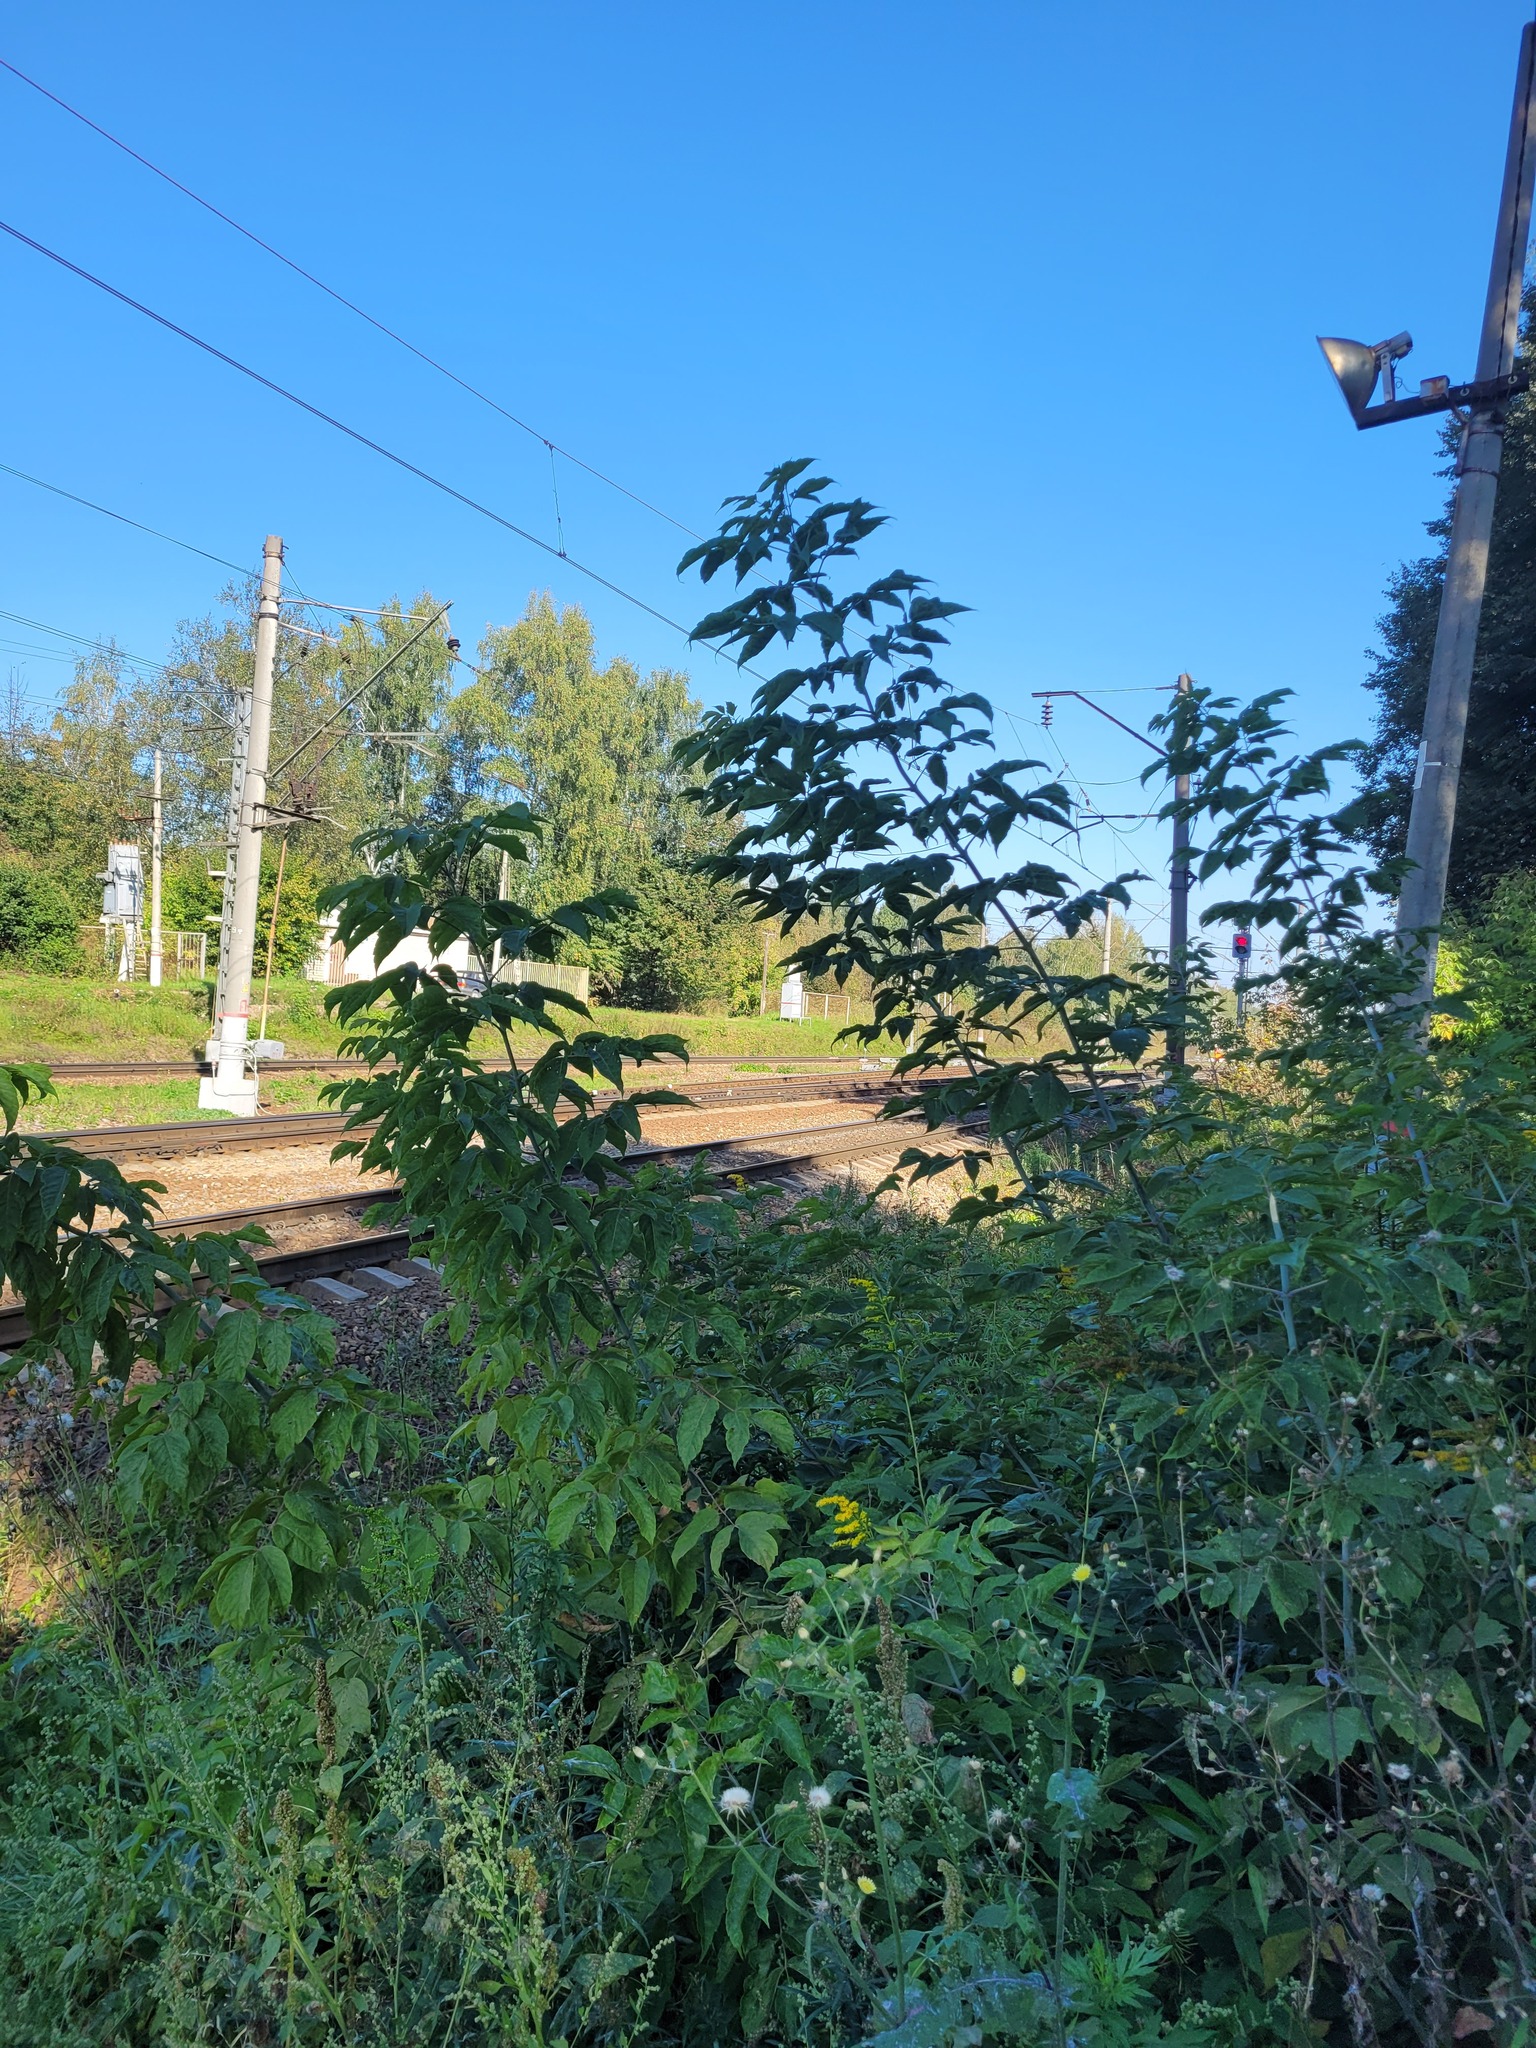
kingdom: Plantae
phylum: Tracheophyta
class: Magnoliopsida
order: Sapindales
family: Sapindaceae
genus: Acer
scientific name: Acer negundo
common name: Ashleaf maple
